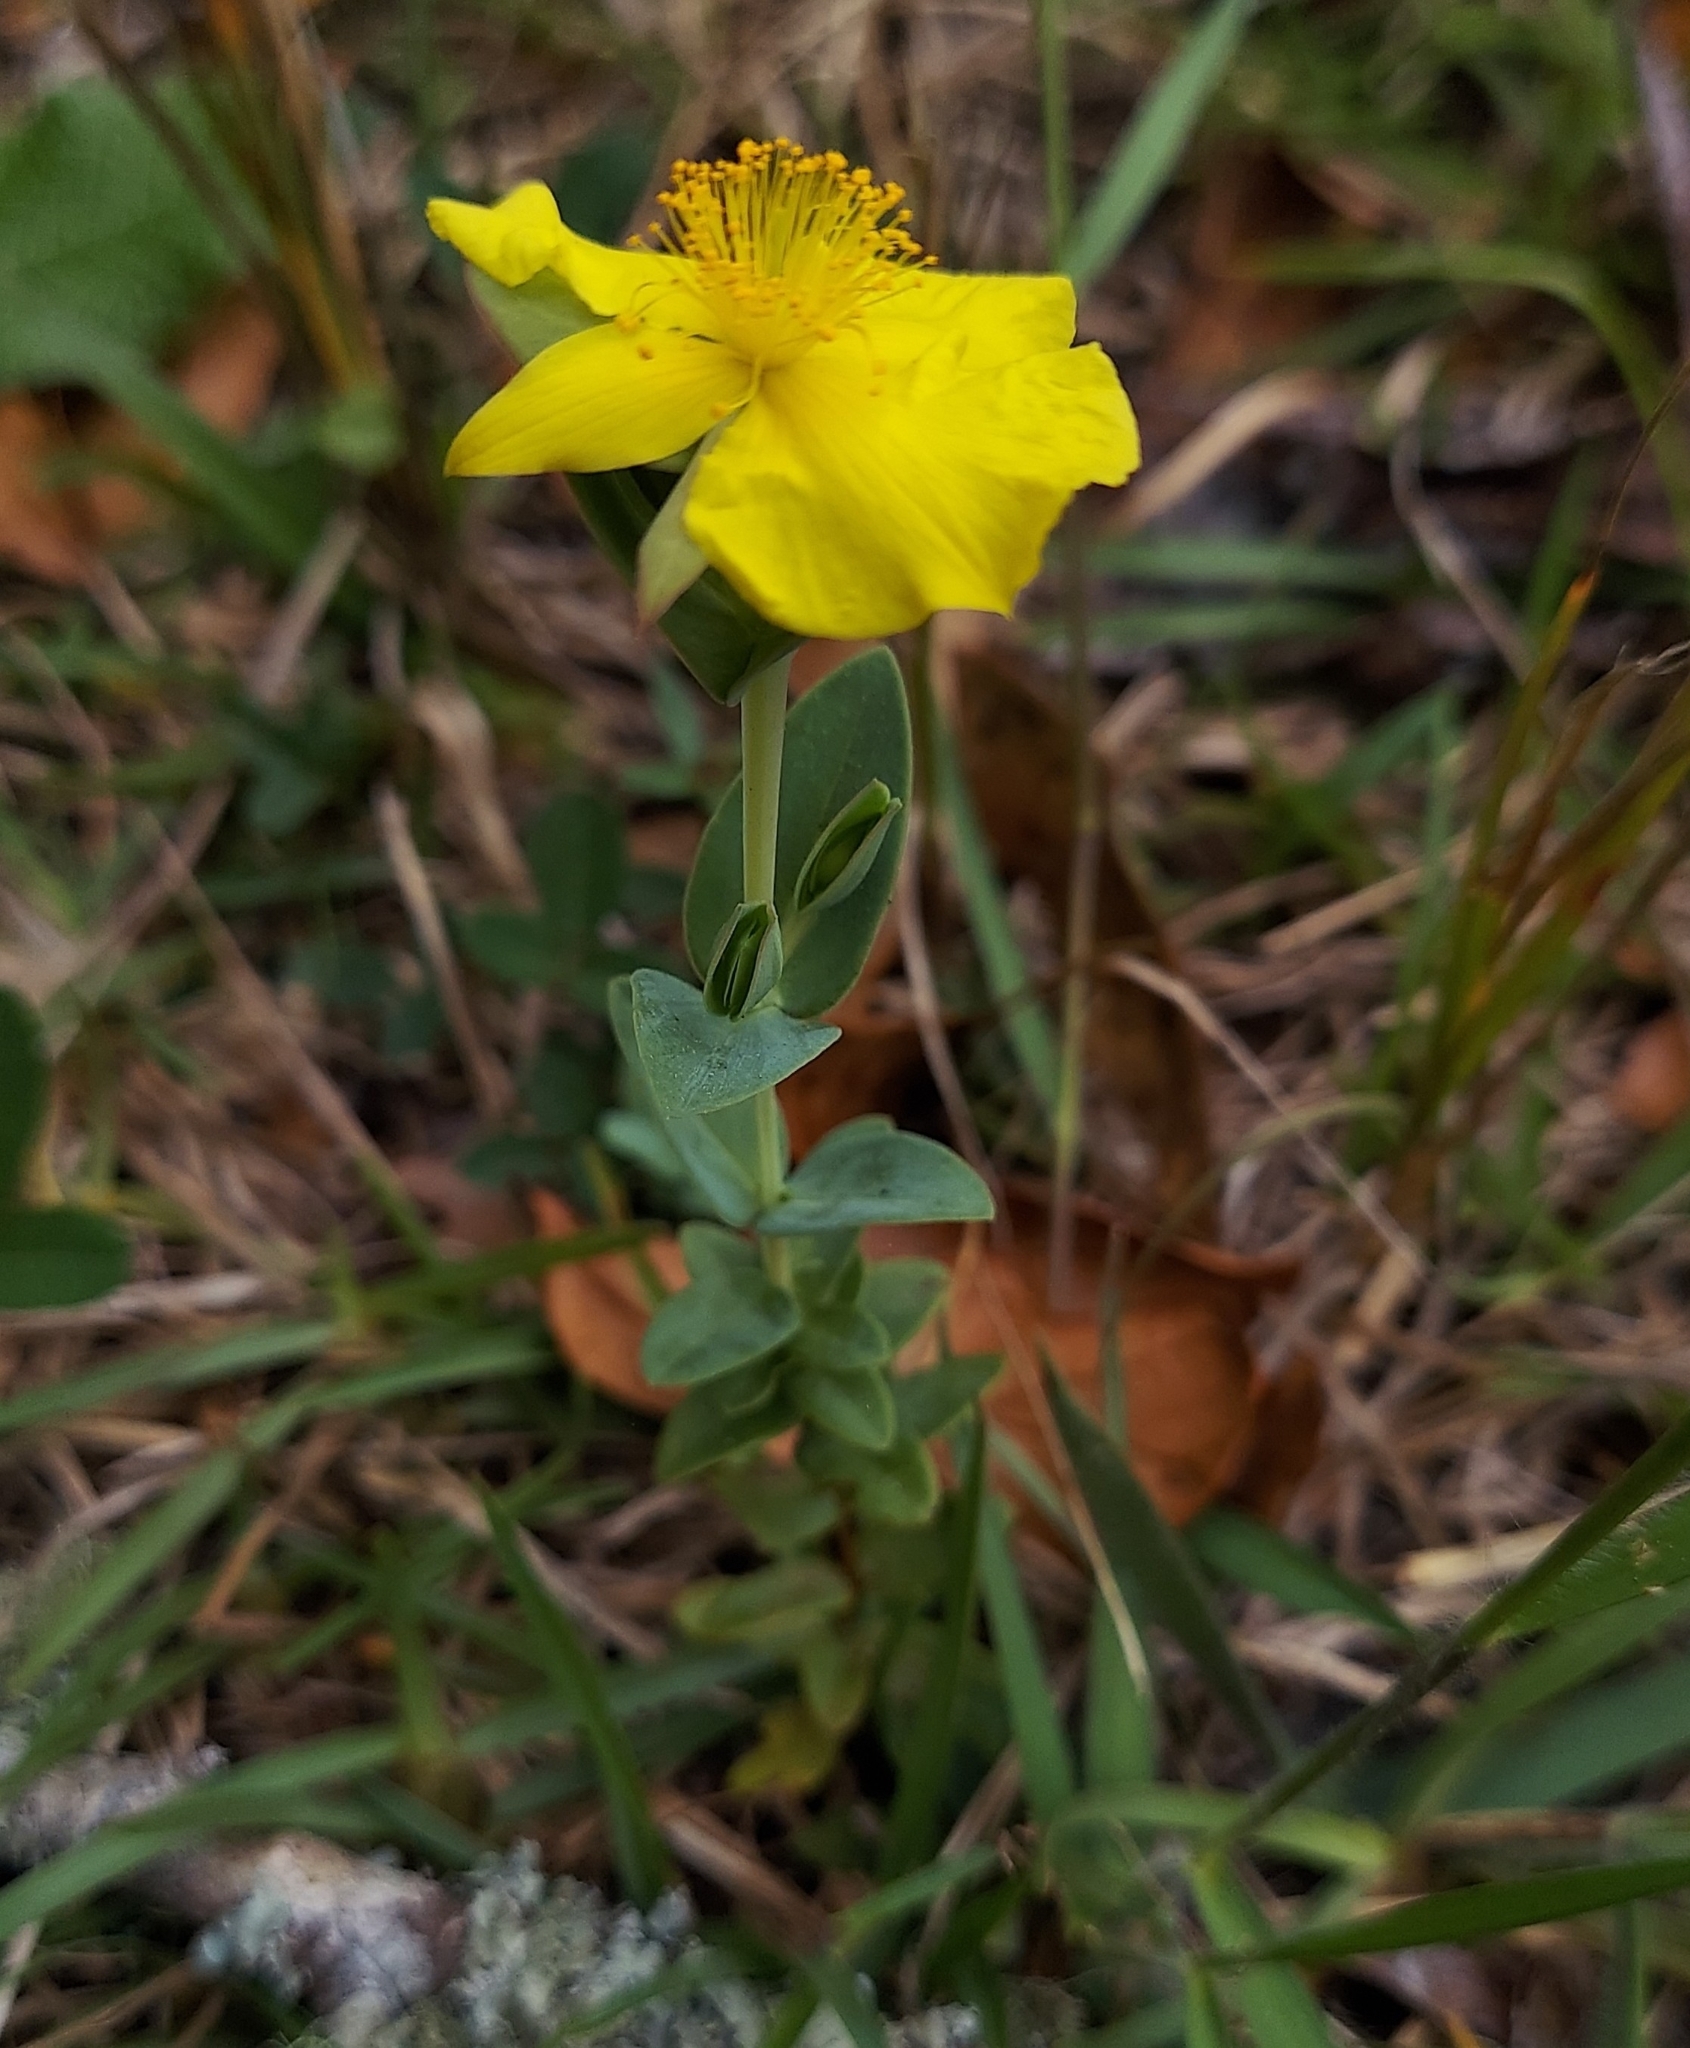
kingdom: Plantae
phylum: Tracheophyta
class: Magnoliopsida
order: Malpighiales
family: Hypericaceae
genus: Hypericum
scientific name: Hypericum tetrapetalum
